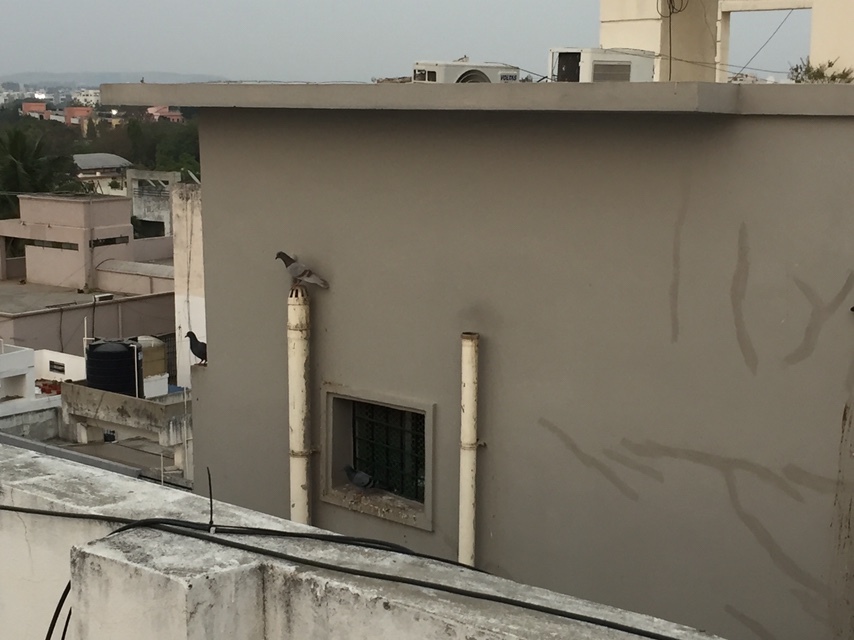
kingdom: Animalia
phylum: Chordata
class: Aves
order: Columbiformes
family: Columbidae
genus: Columba
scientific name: Columba livia
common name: Rock pigeon
